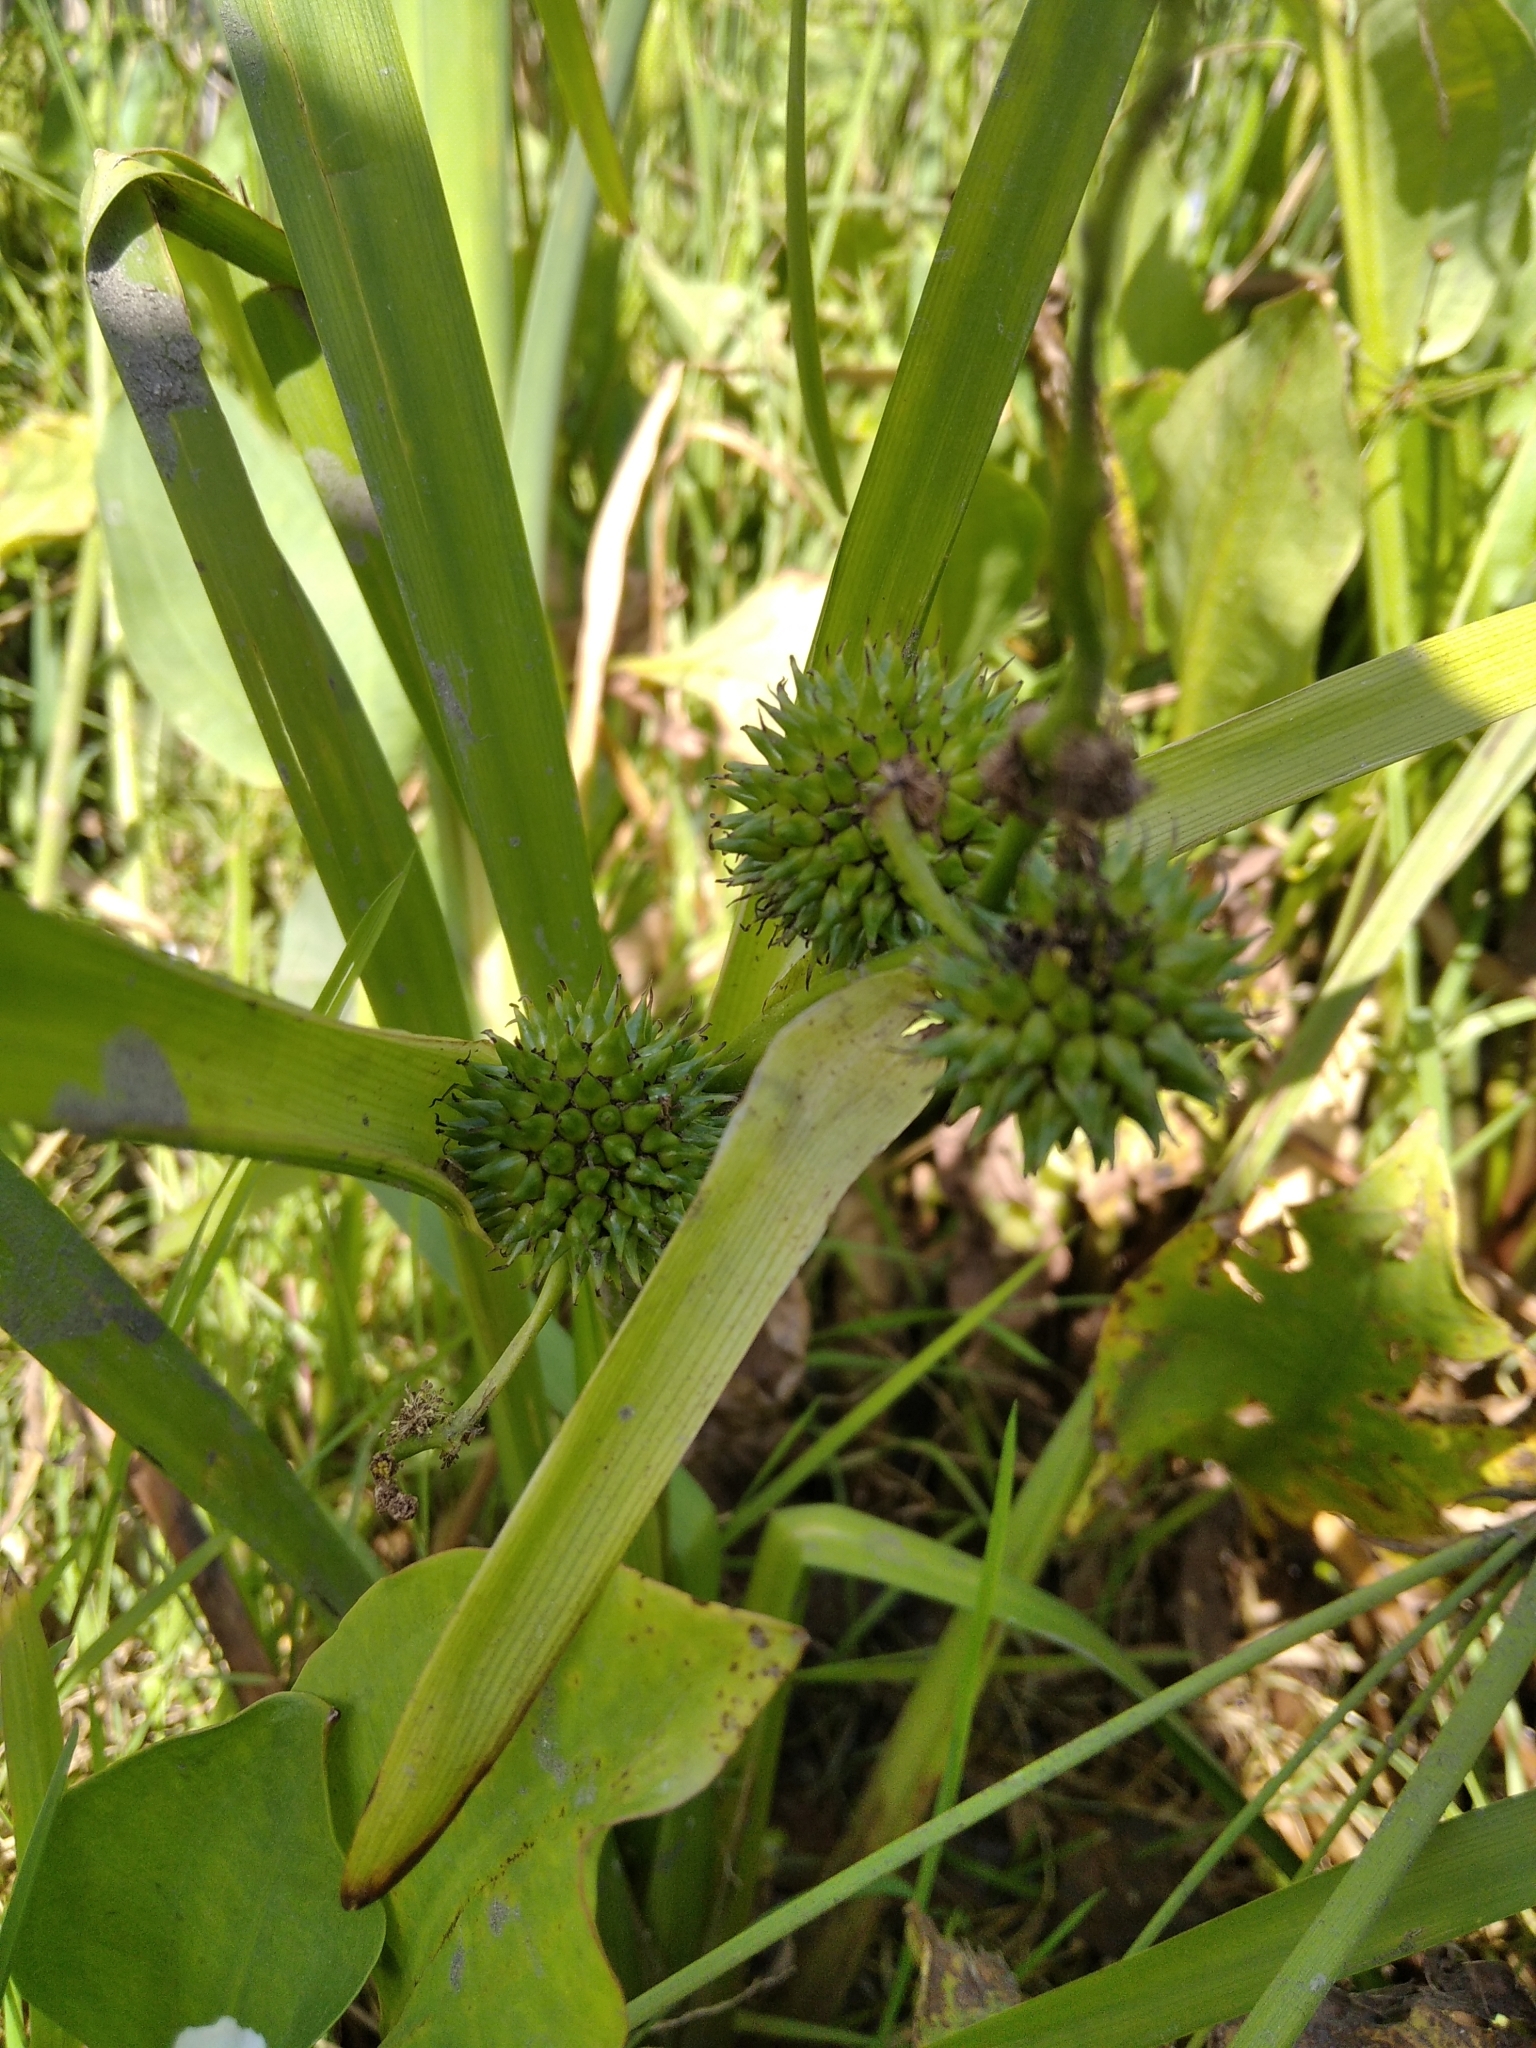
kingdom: Plantae
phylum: Tracheophyta
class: Liliopsida
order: Poales
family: Typhaceae
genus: Sparganium
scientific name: Sparganium erectum
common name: Branched bur-reed
